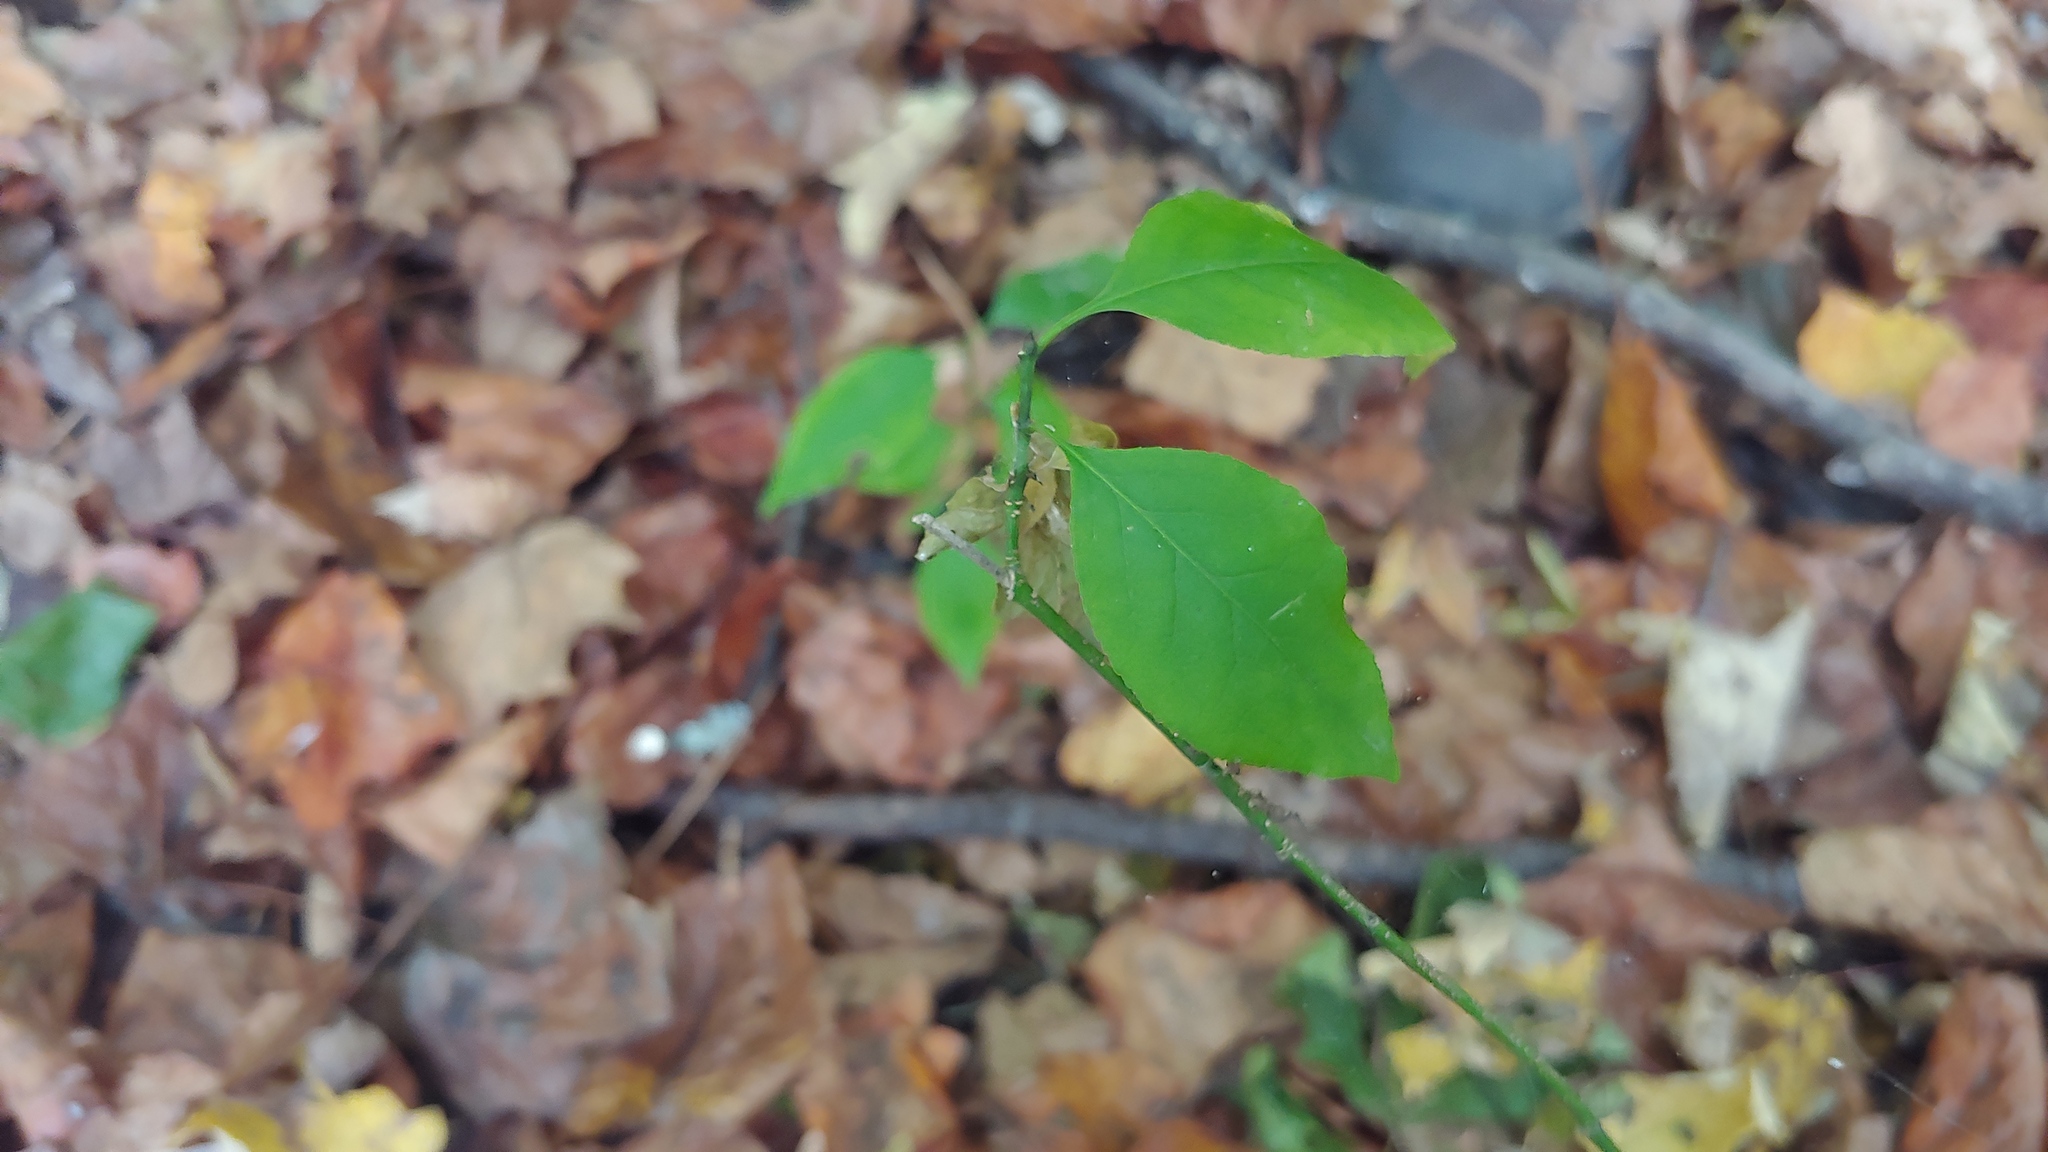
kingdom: Plantae
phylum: Tracheophyta
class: Magnoliopsida
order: Celastrales
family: Celastraceae
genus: Euonymus
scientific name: Euonymus atropurpureus
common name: Eastern wahoo
